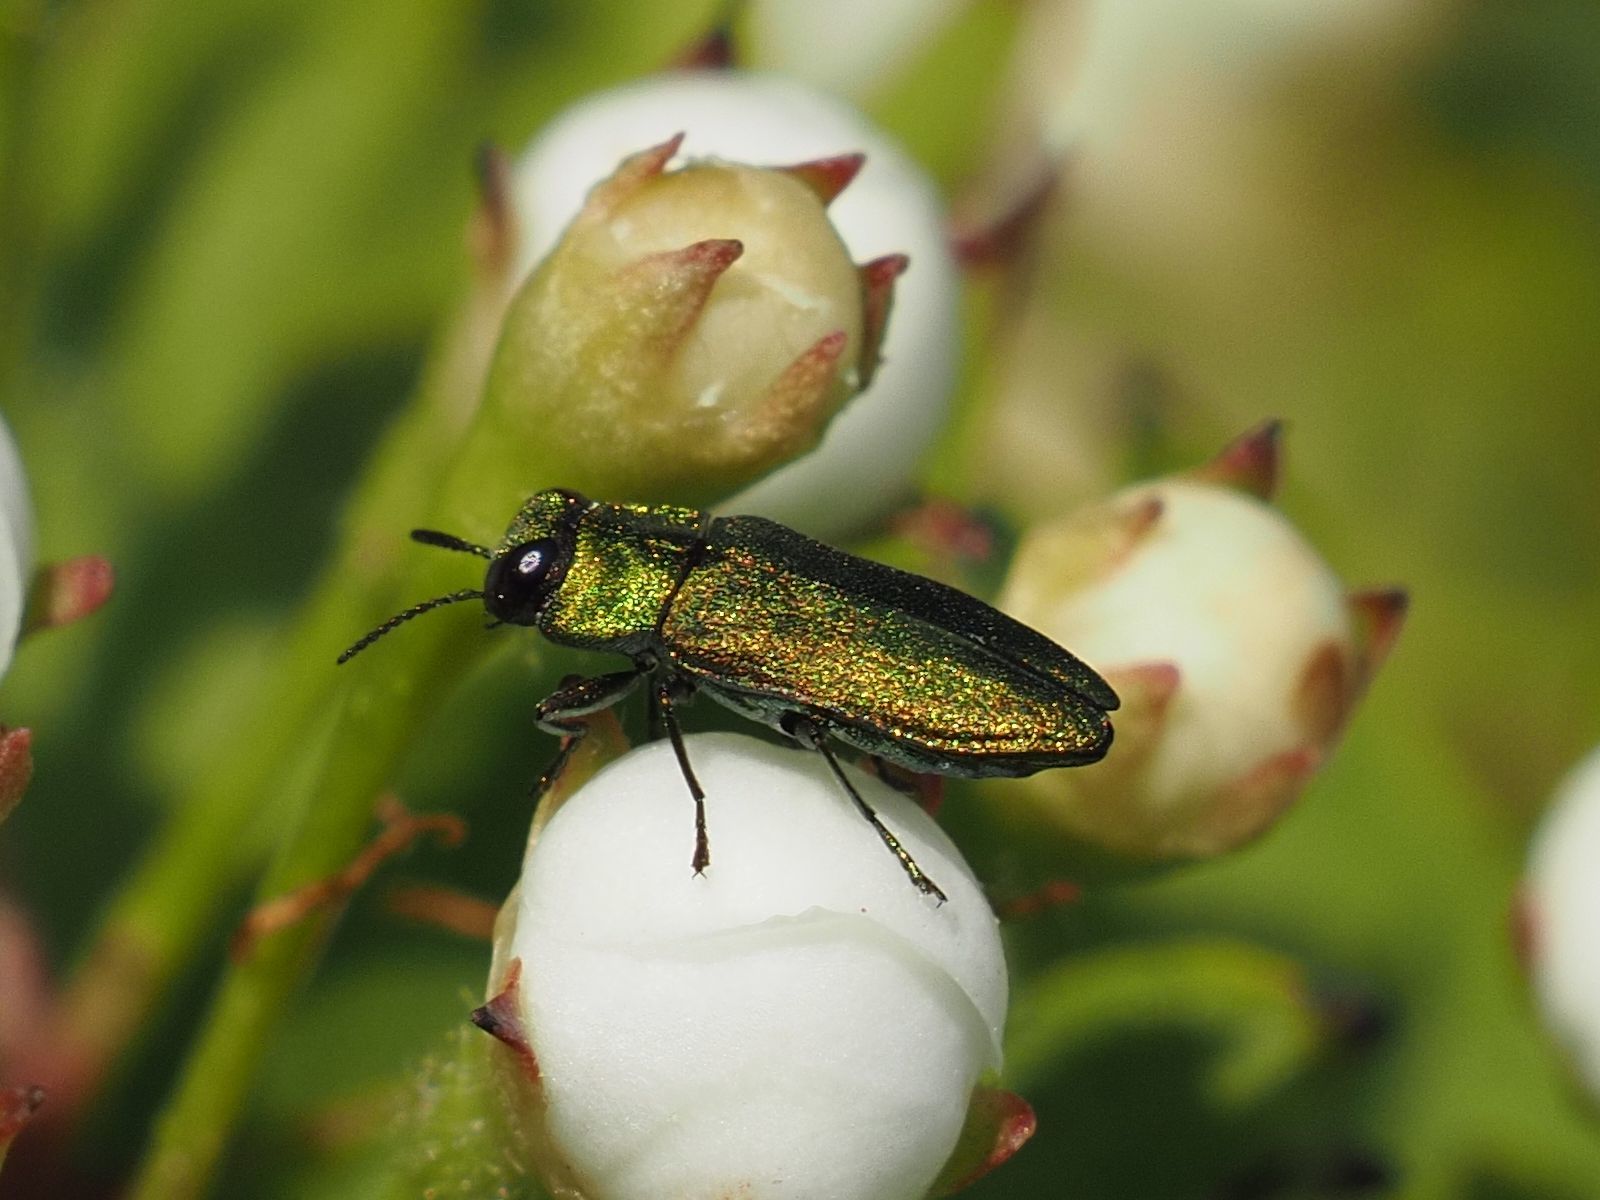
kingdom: Animalia
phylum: Arthropoda
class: Insecta
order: Coleoptera
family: Buprestidae
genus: Anthaxia
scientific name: Anthaxia nitidula
